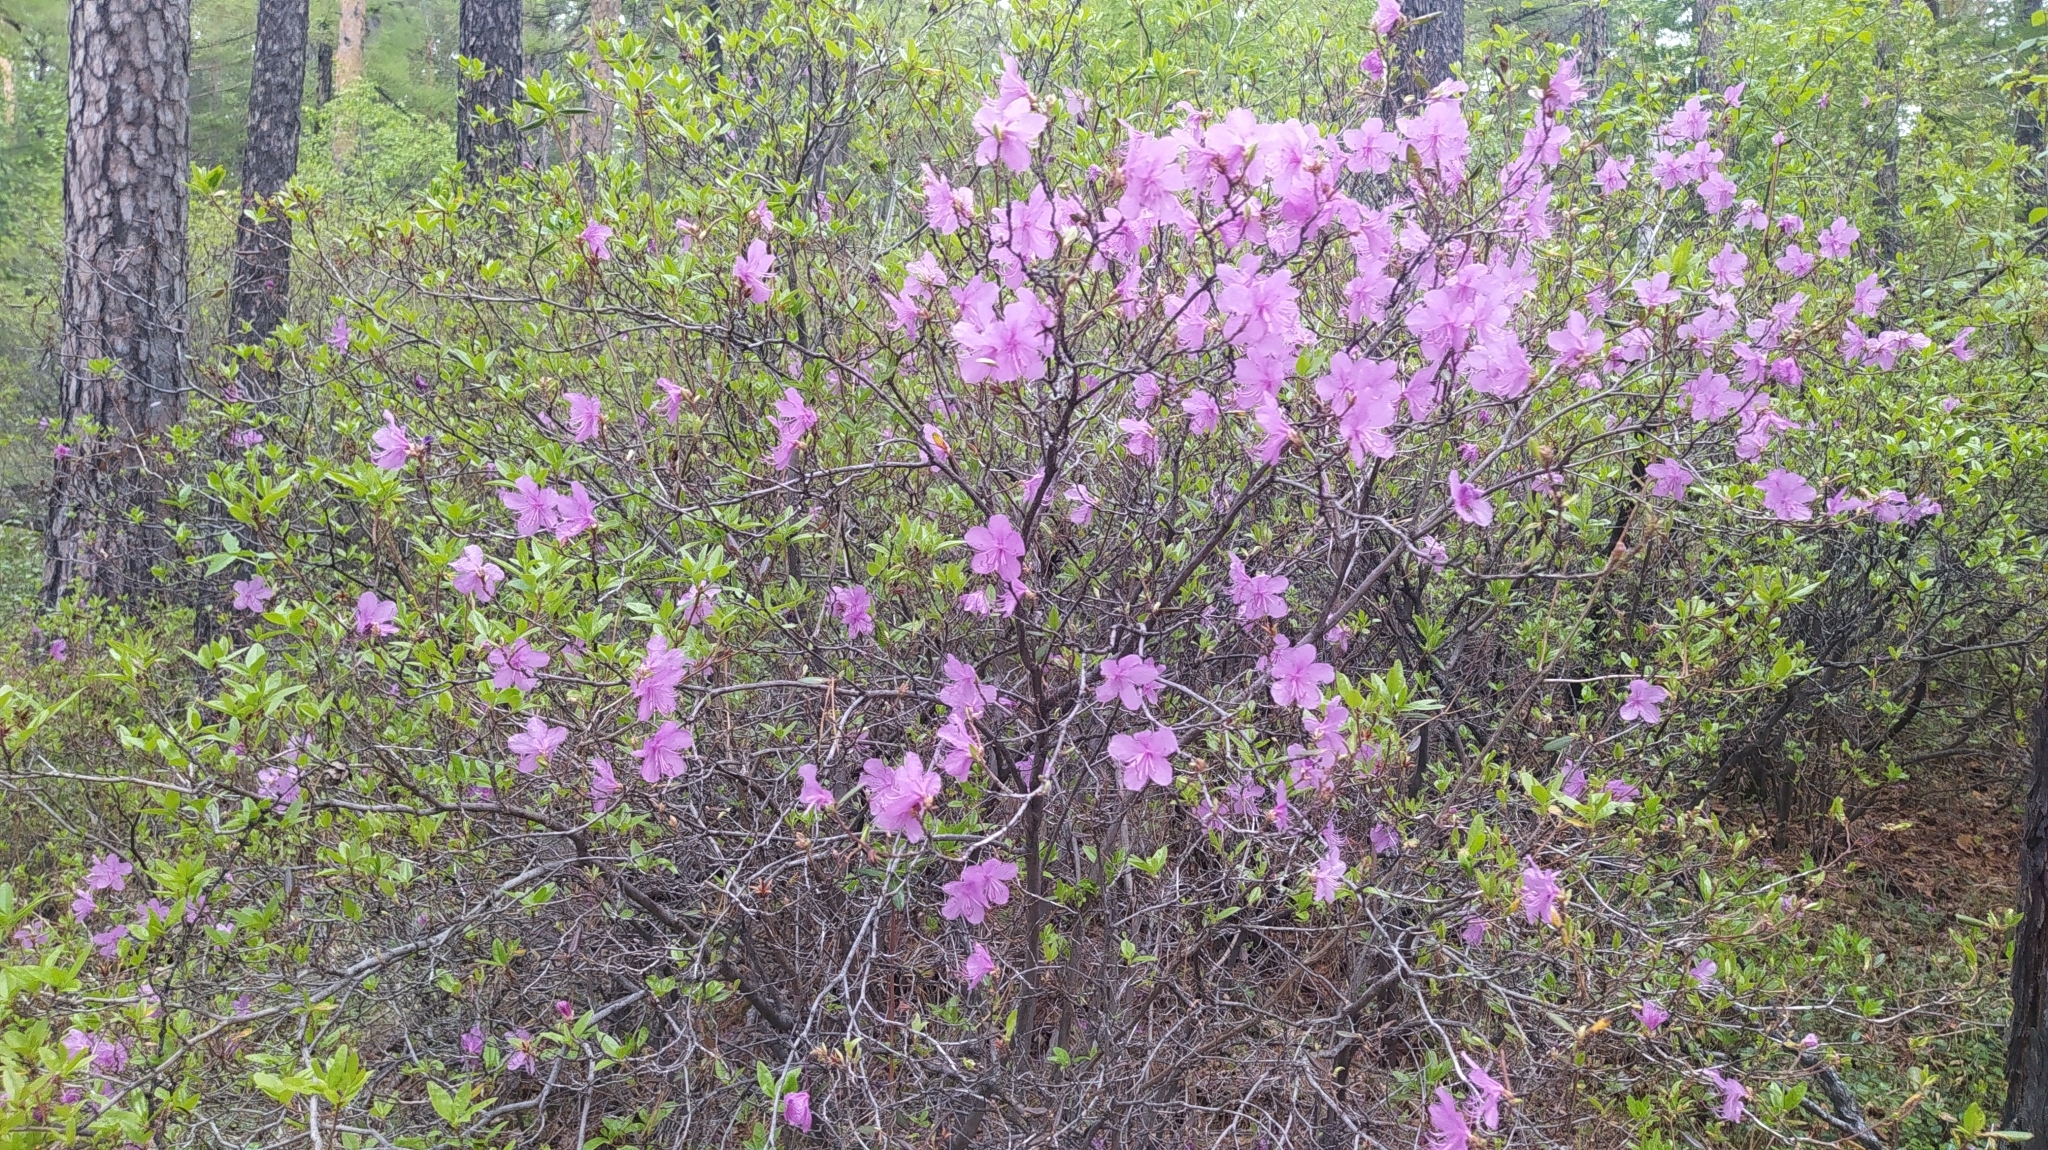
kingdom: Plantae
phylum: Tracheophyta
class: Magnoliopsida
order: Ericales
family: Ericaceae
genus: Rhododendron
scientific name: Rhododendron dauricum
